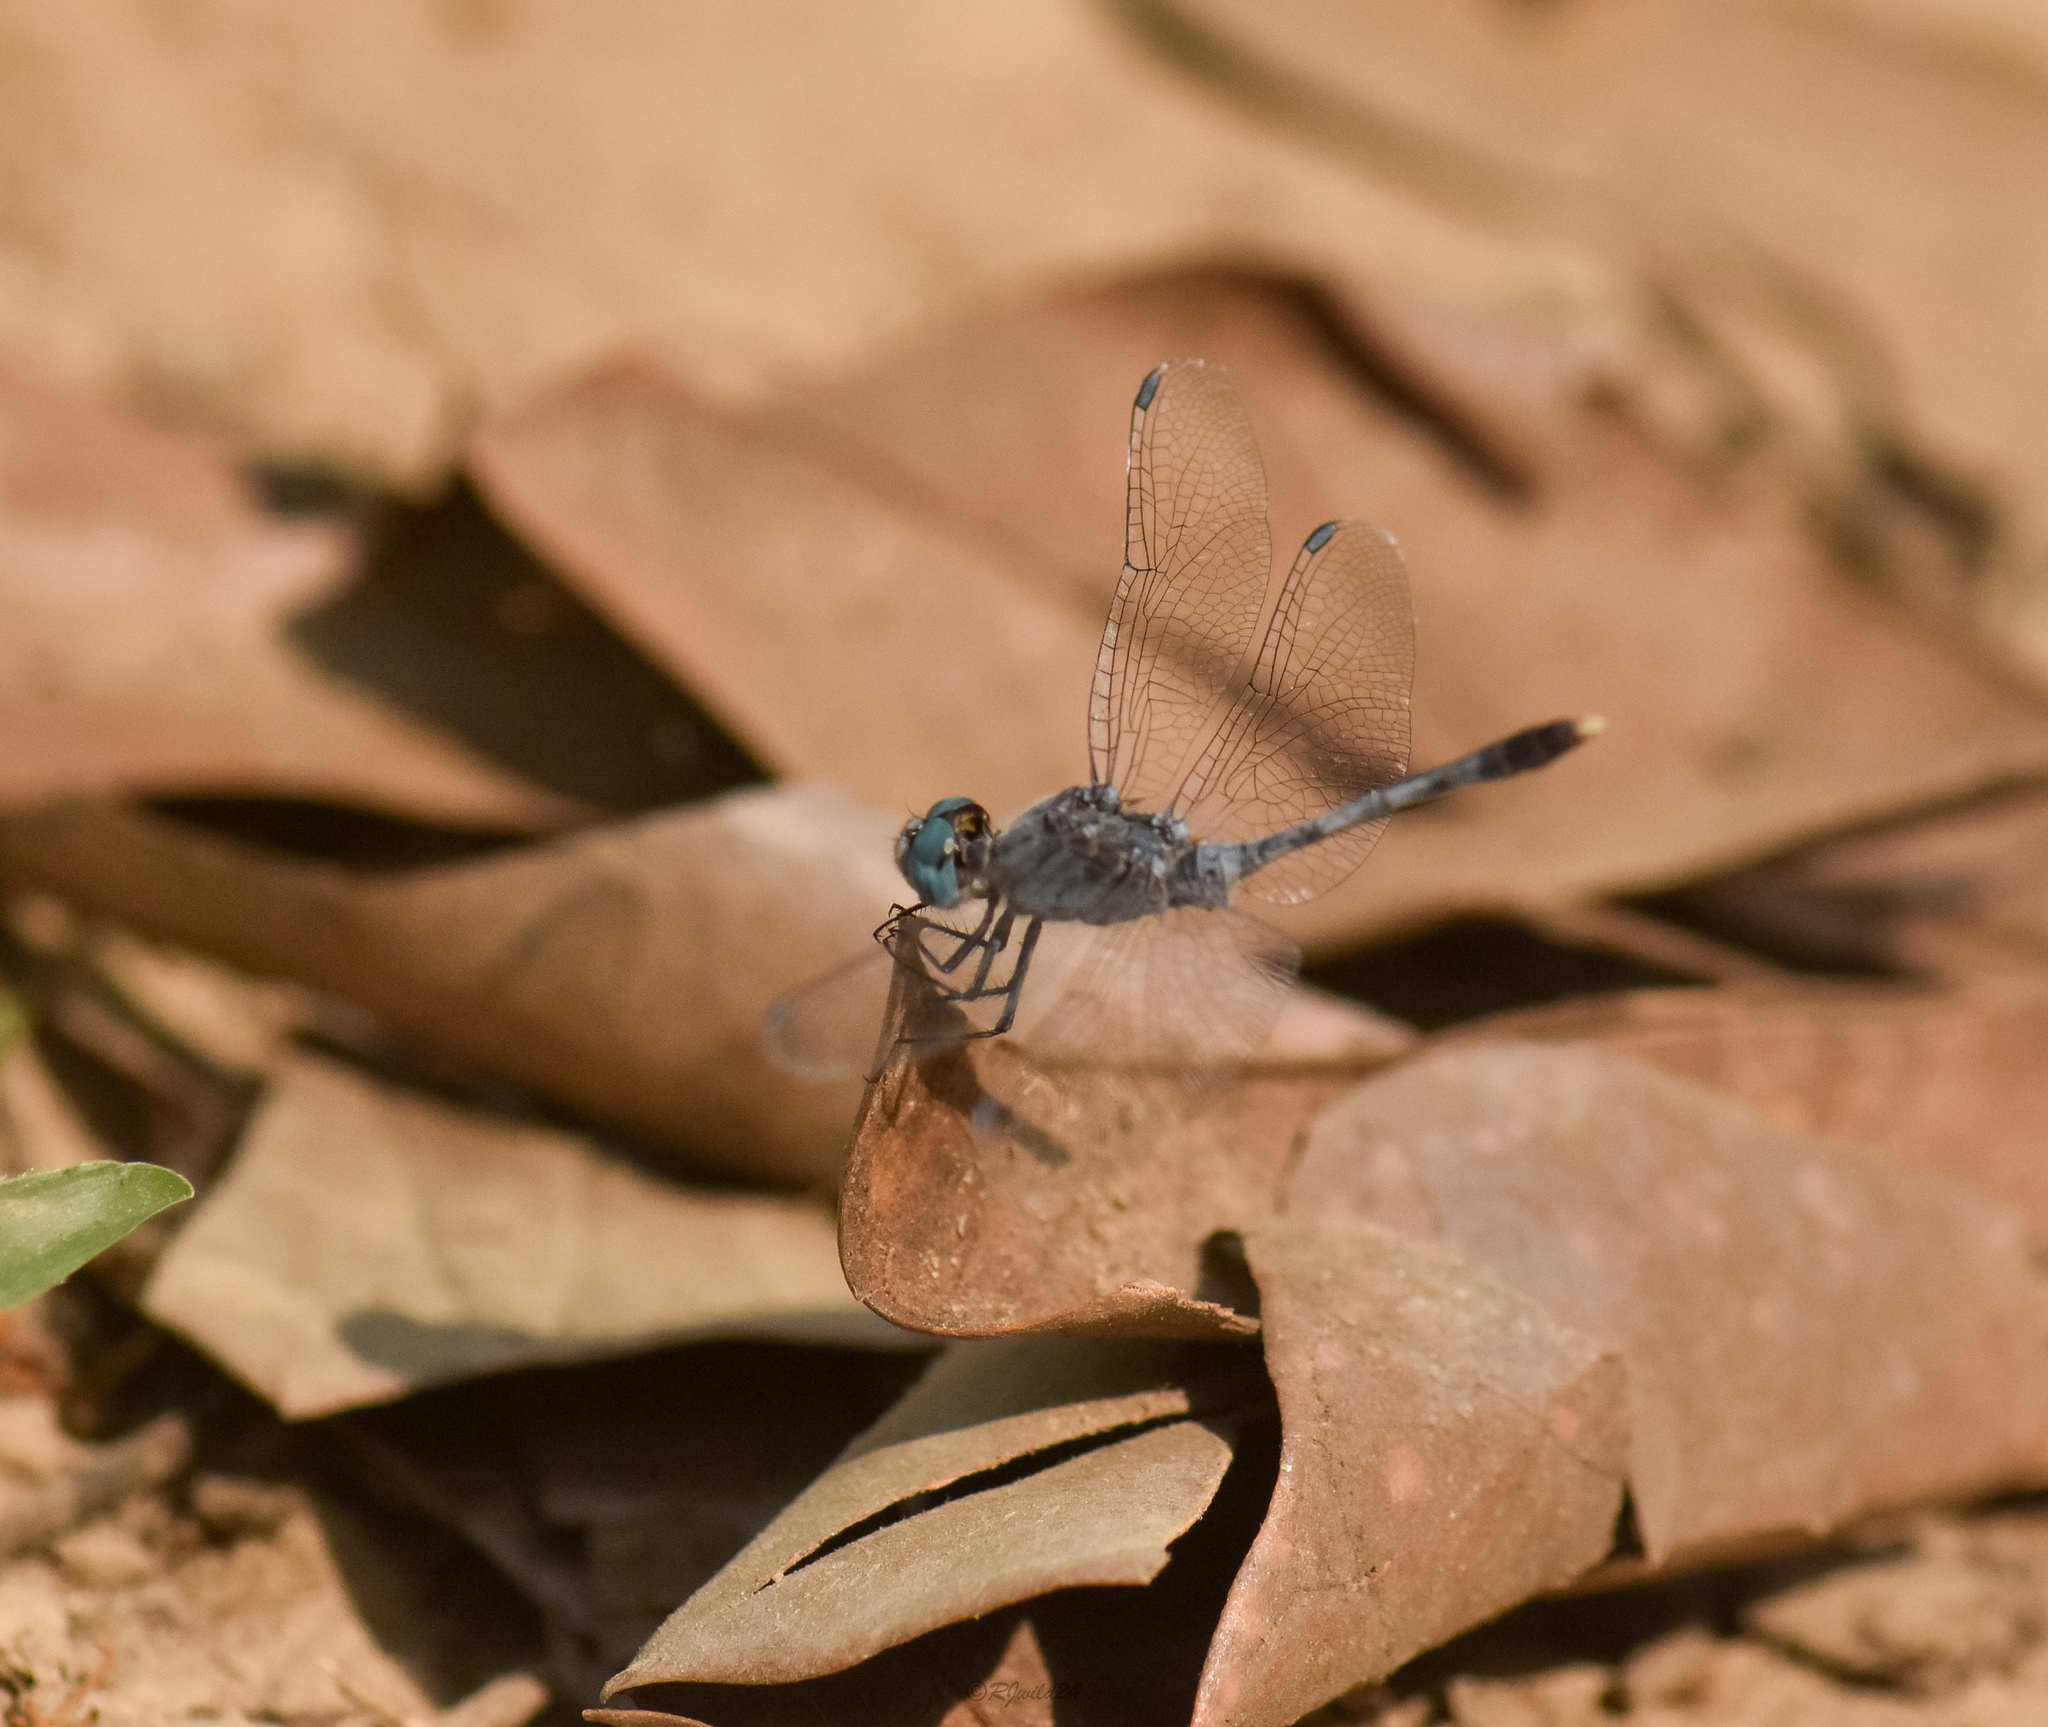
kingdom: Animalia
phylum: Arthropoda
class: Insecta
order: Odonata
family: Libellulidae
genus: Diplacodes
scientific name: Diplacodes trivialis
